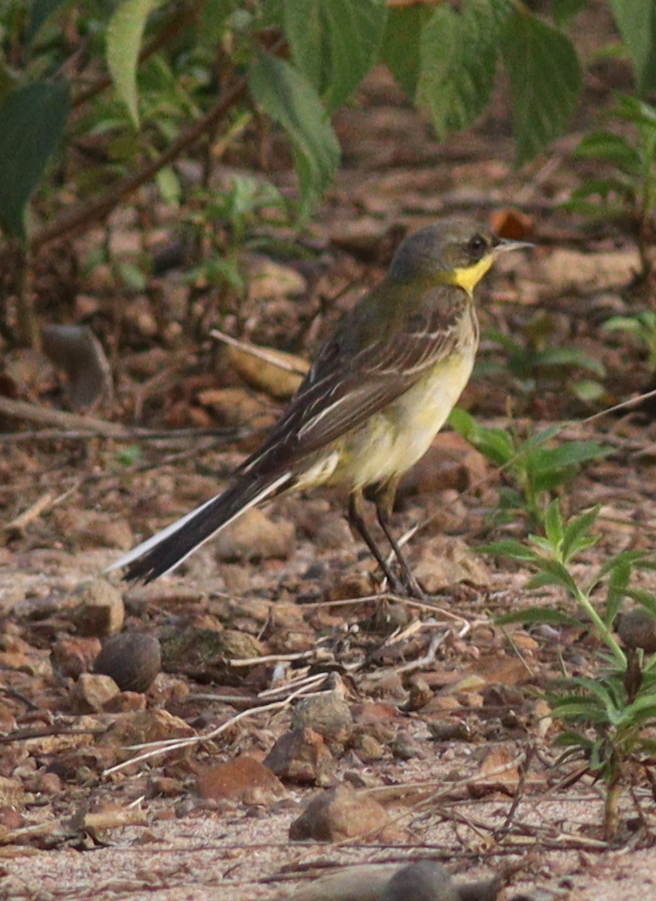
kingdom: Animalia
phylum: Chordata
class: Aves
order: Passeriformes
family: Motacillidae
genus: Motacilla
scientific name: Motacilla flava
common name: Western yellow wagtail
